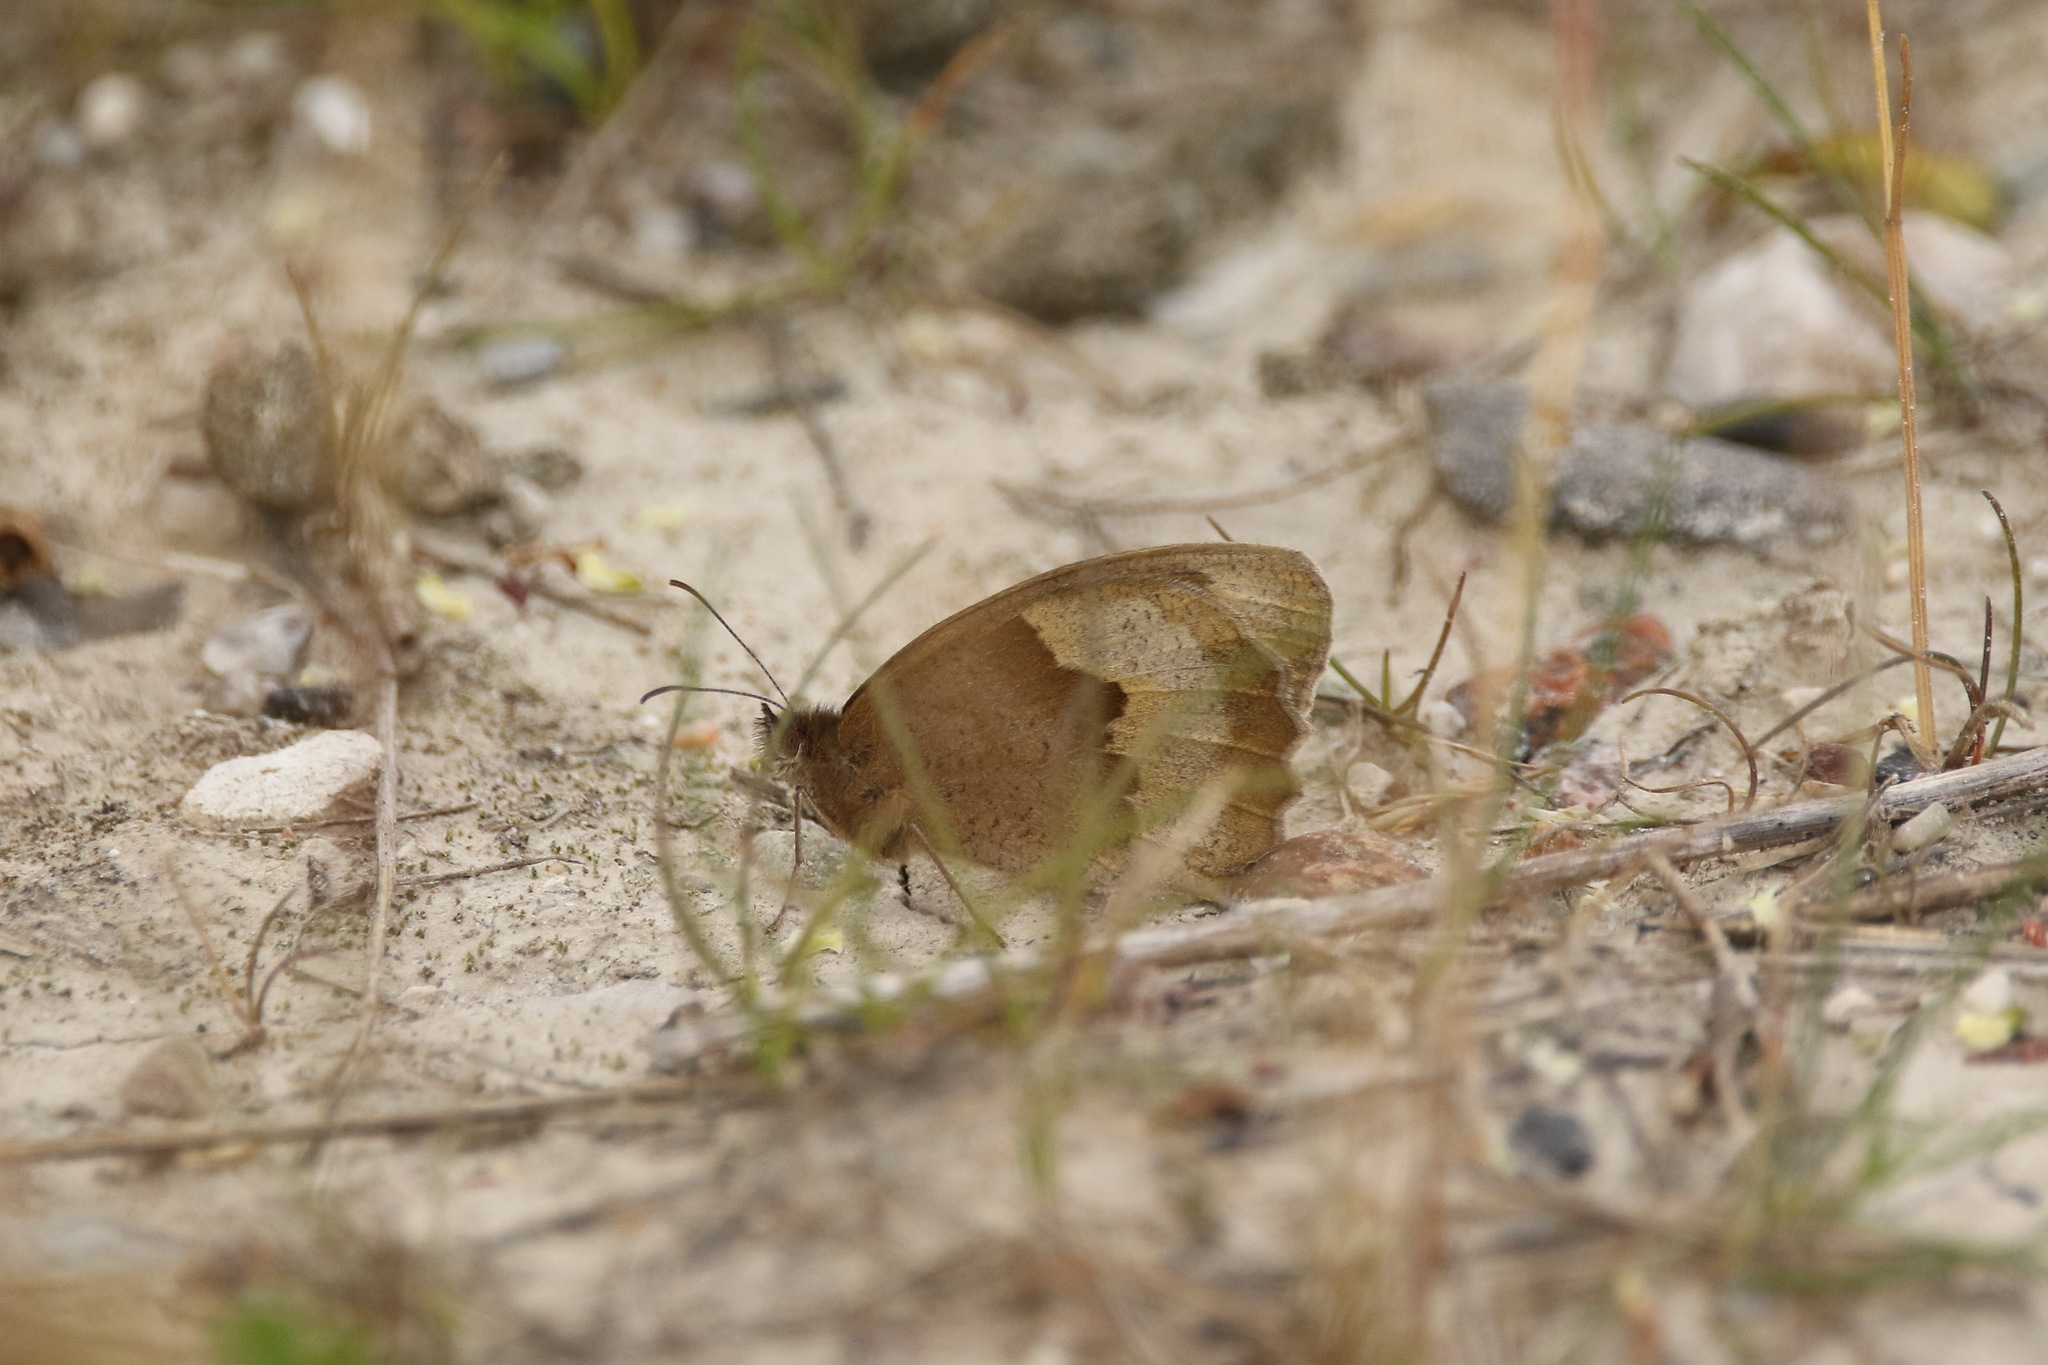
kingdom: Animalia
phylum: Arthropoda
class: Insecta
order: Lepidoptera
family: Nymphalidae
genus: Maniola
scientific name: Maniola jurtina
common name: Meadow brown
